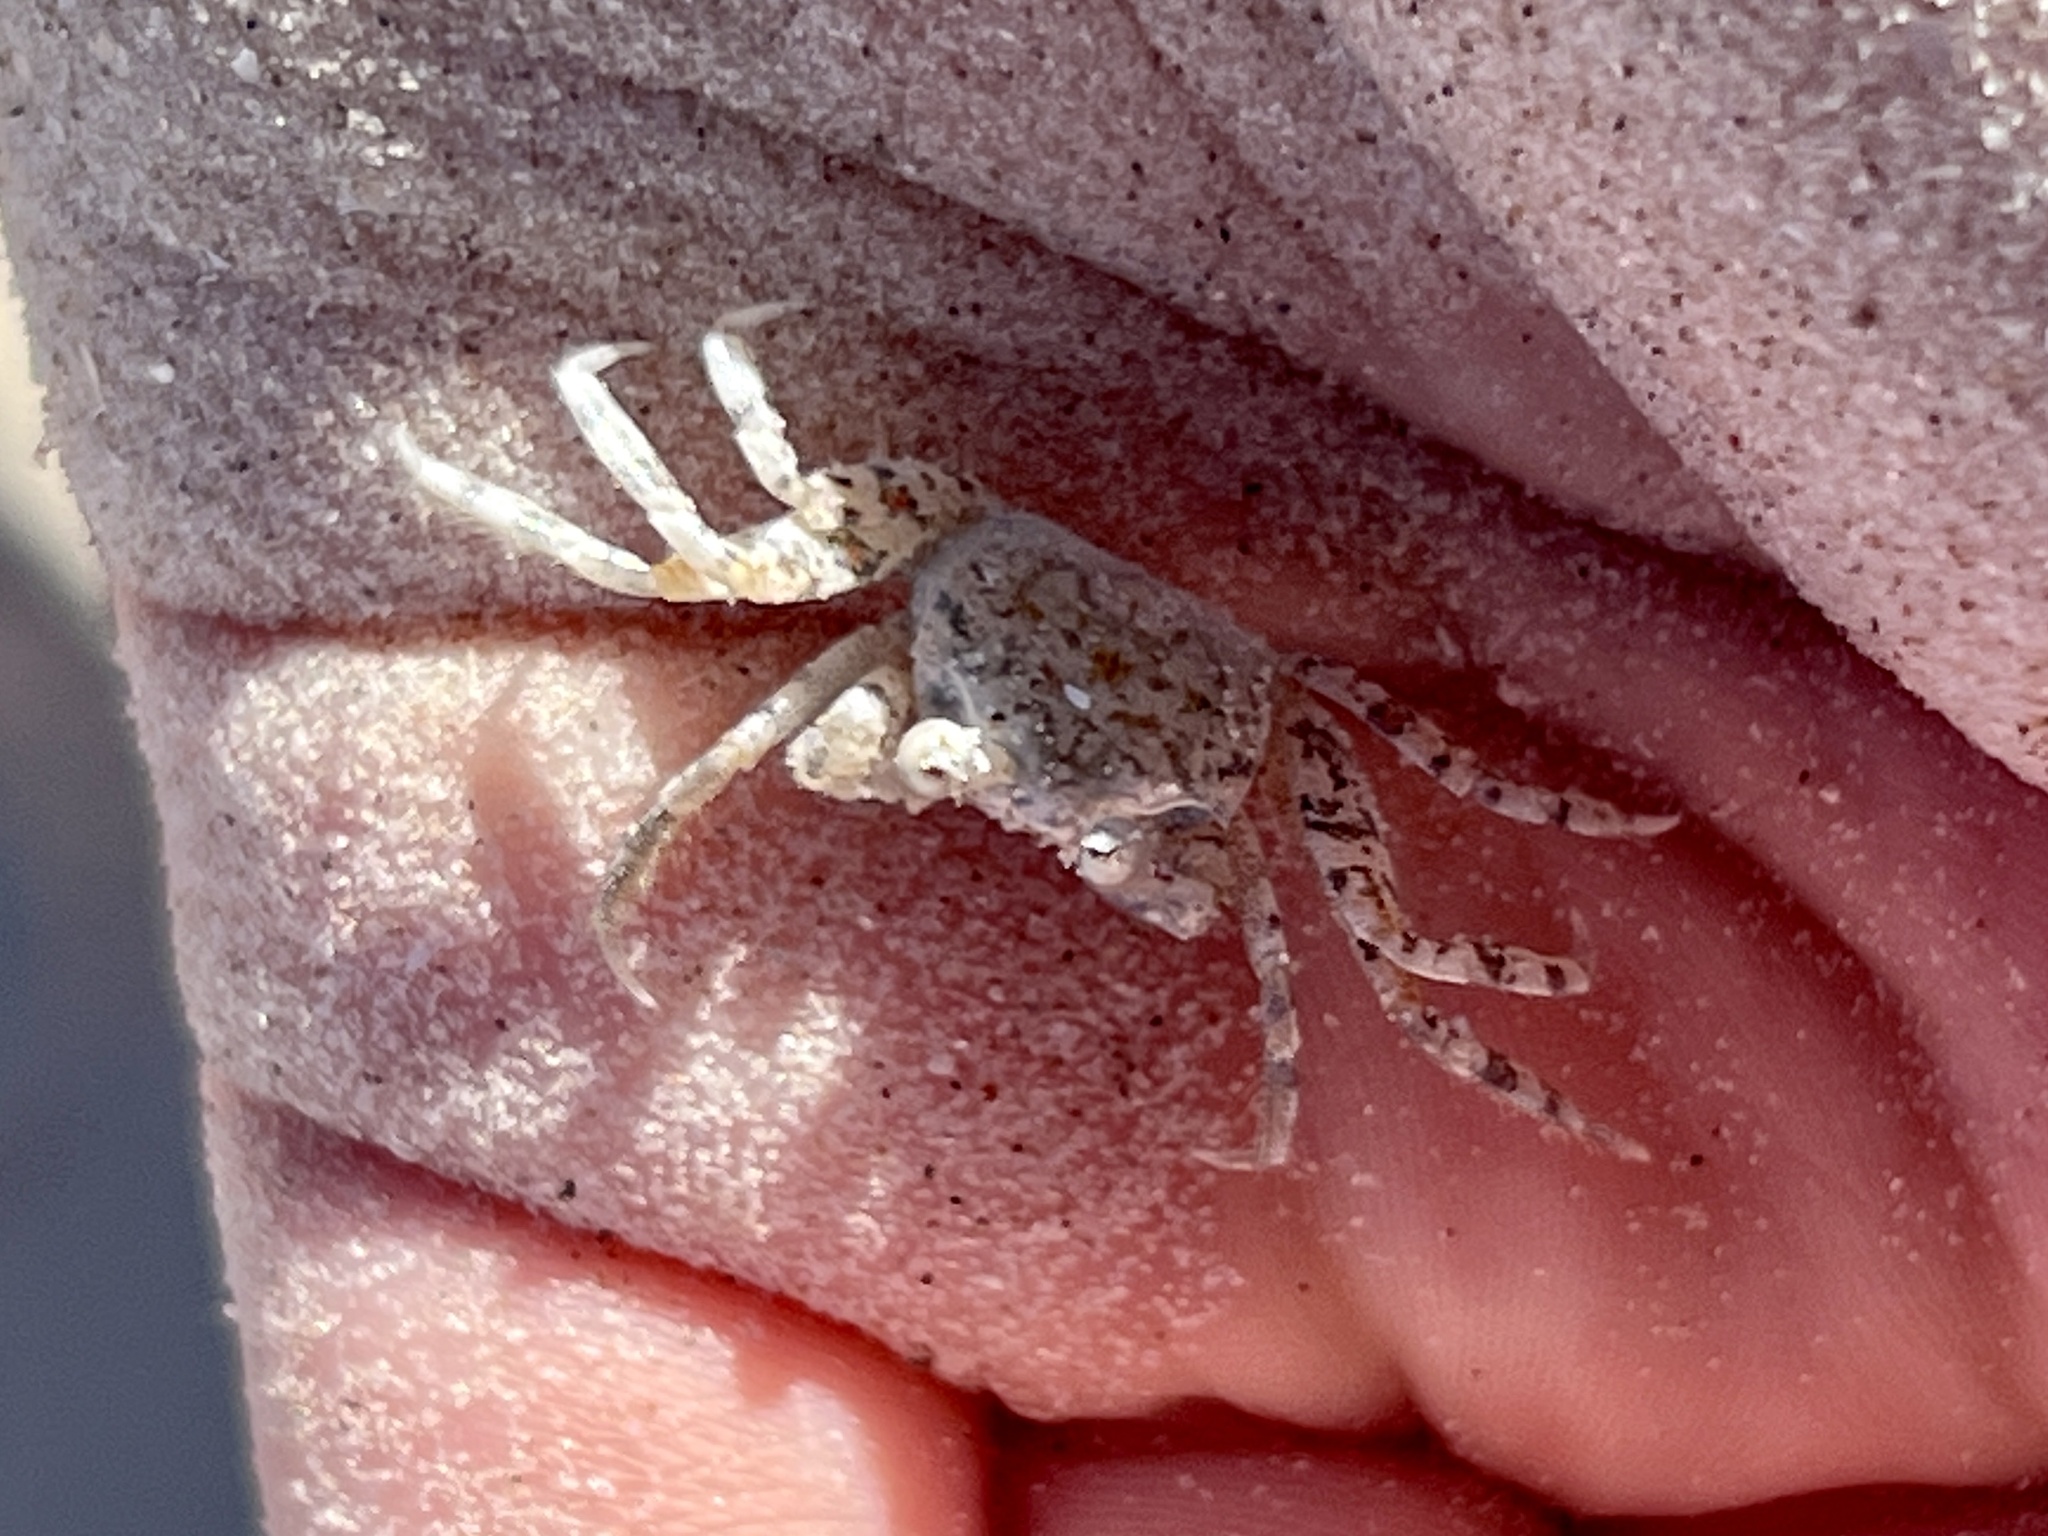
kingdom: Animalia
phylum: Arthropoda
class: Malacostraca
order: Decapoda
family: Ocypodidae
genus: Ocypode
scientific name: Ocypode quadrata
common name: Ghost crab
